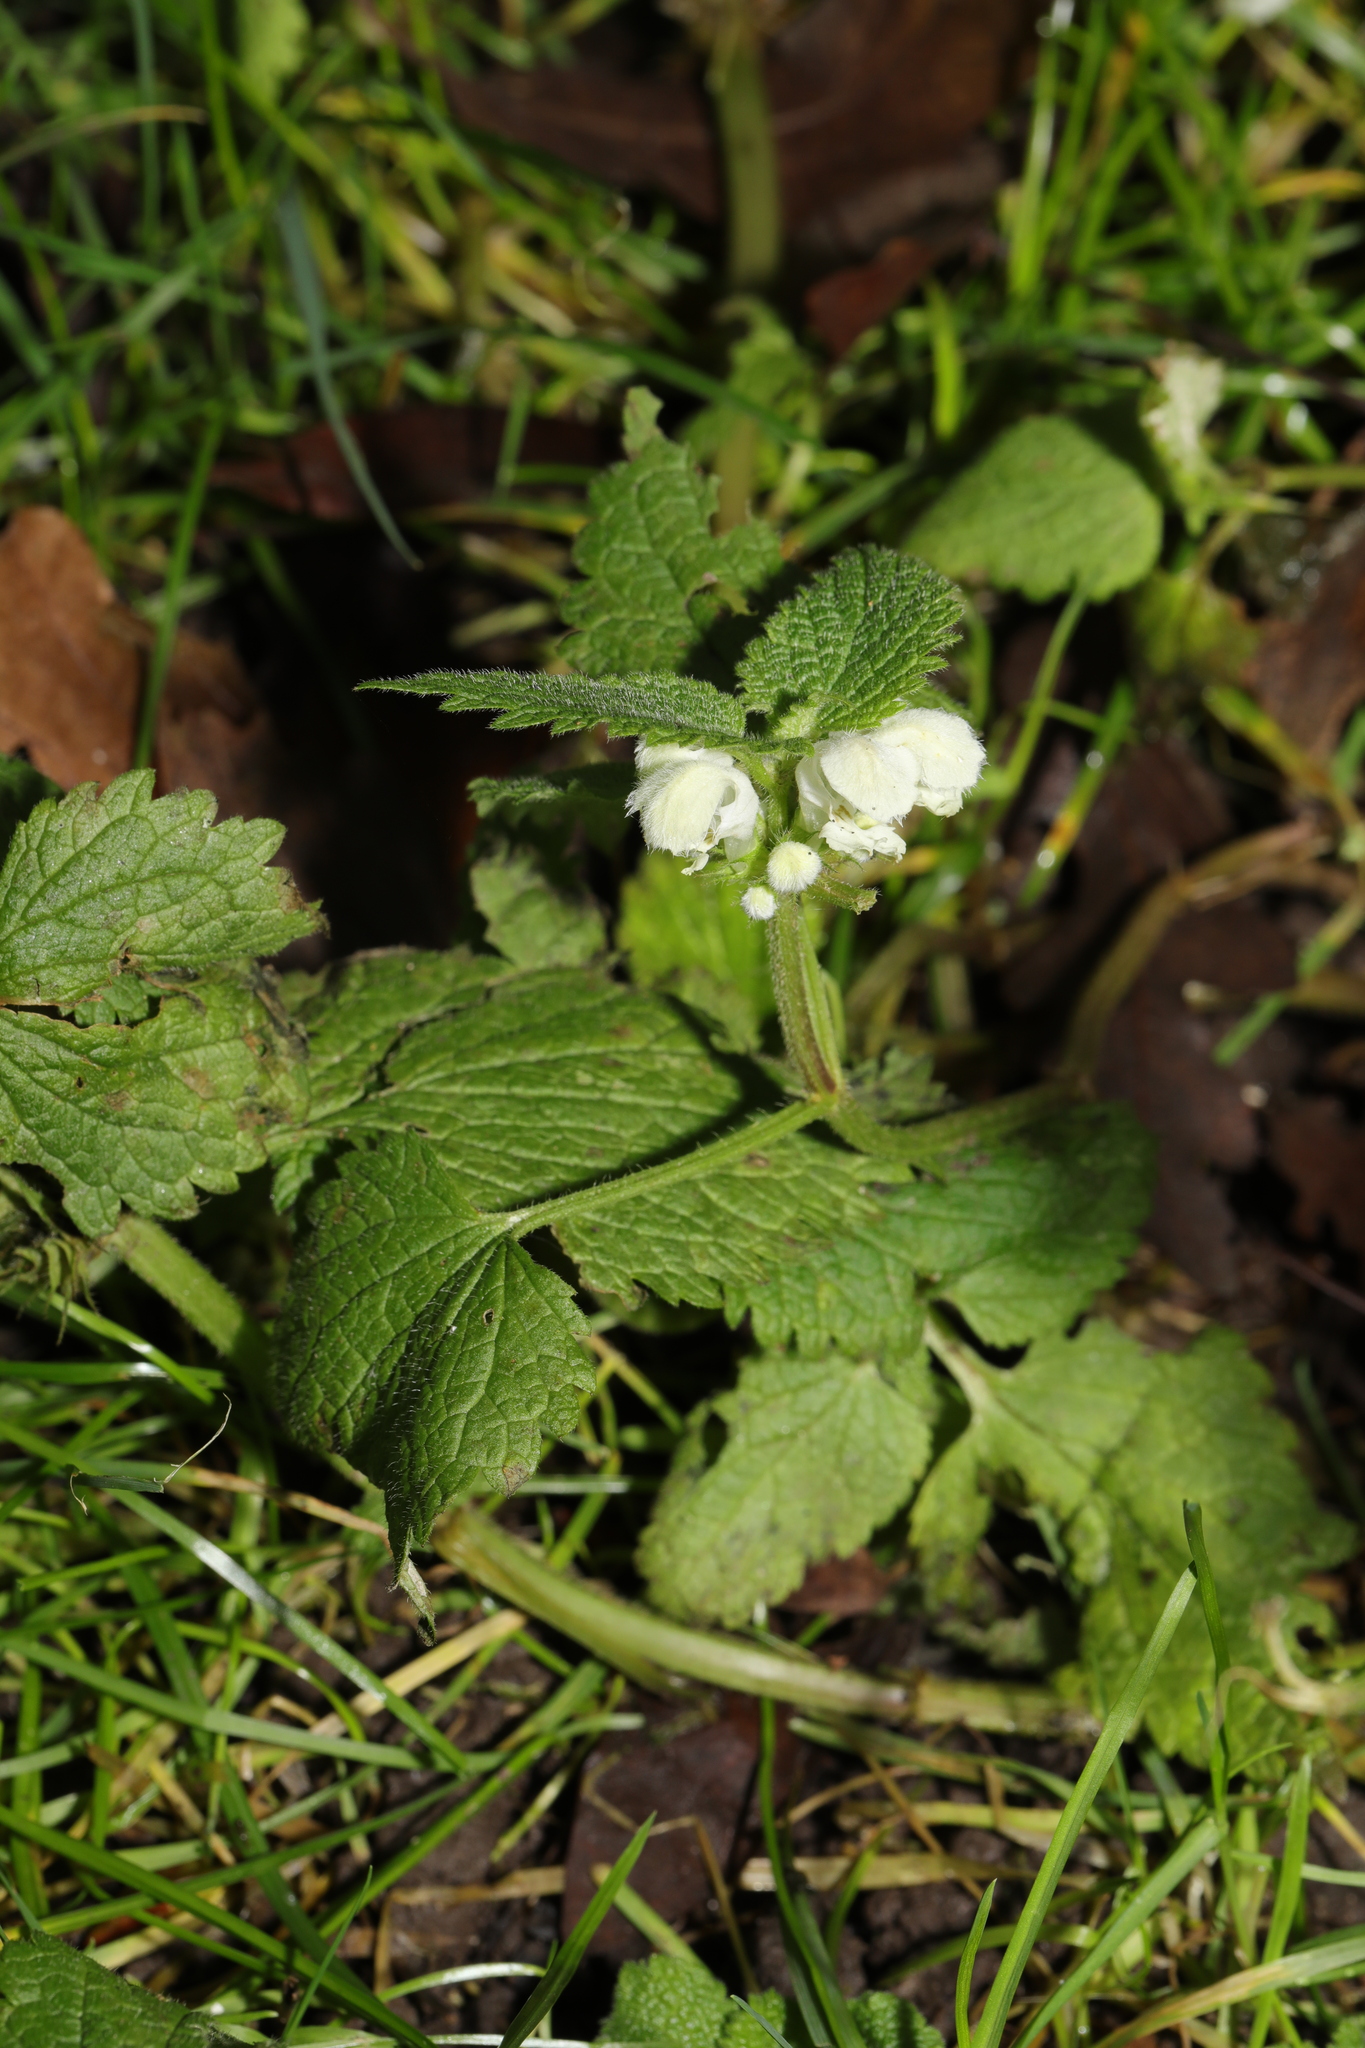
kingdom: Plantae
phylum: Tracheophyta
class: Magnoliopsida
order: Lamiales
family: Lamiaceae
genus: Lamium
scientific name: Lamium album
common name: White dead-nettle
